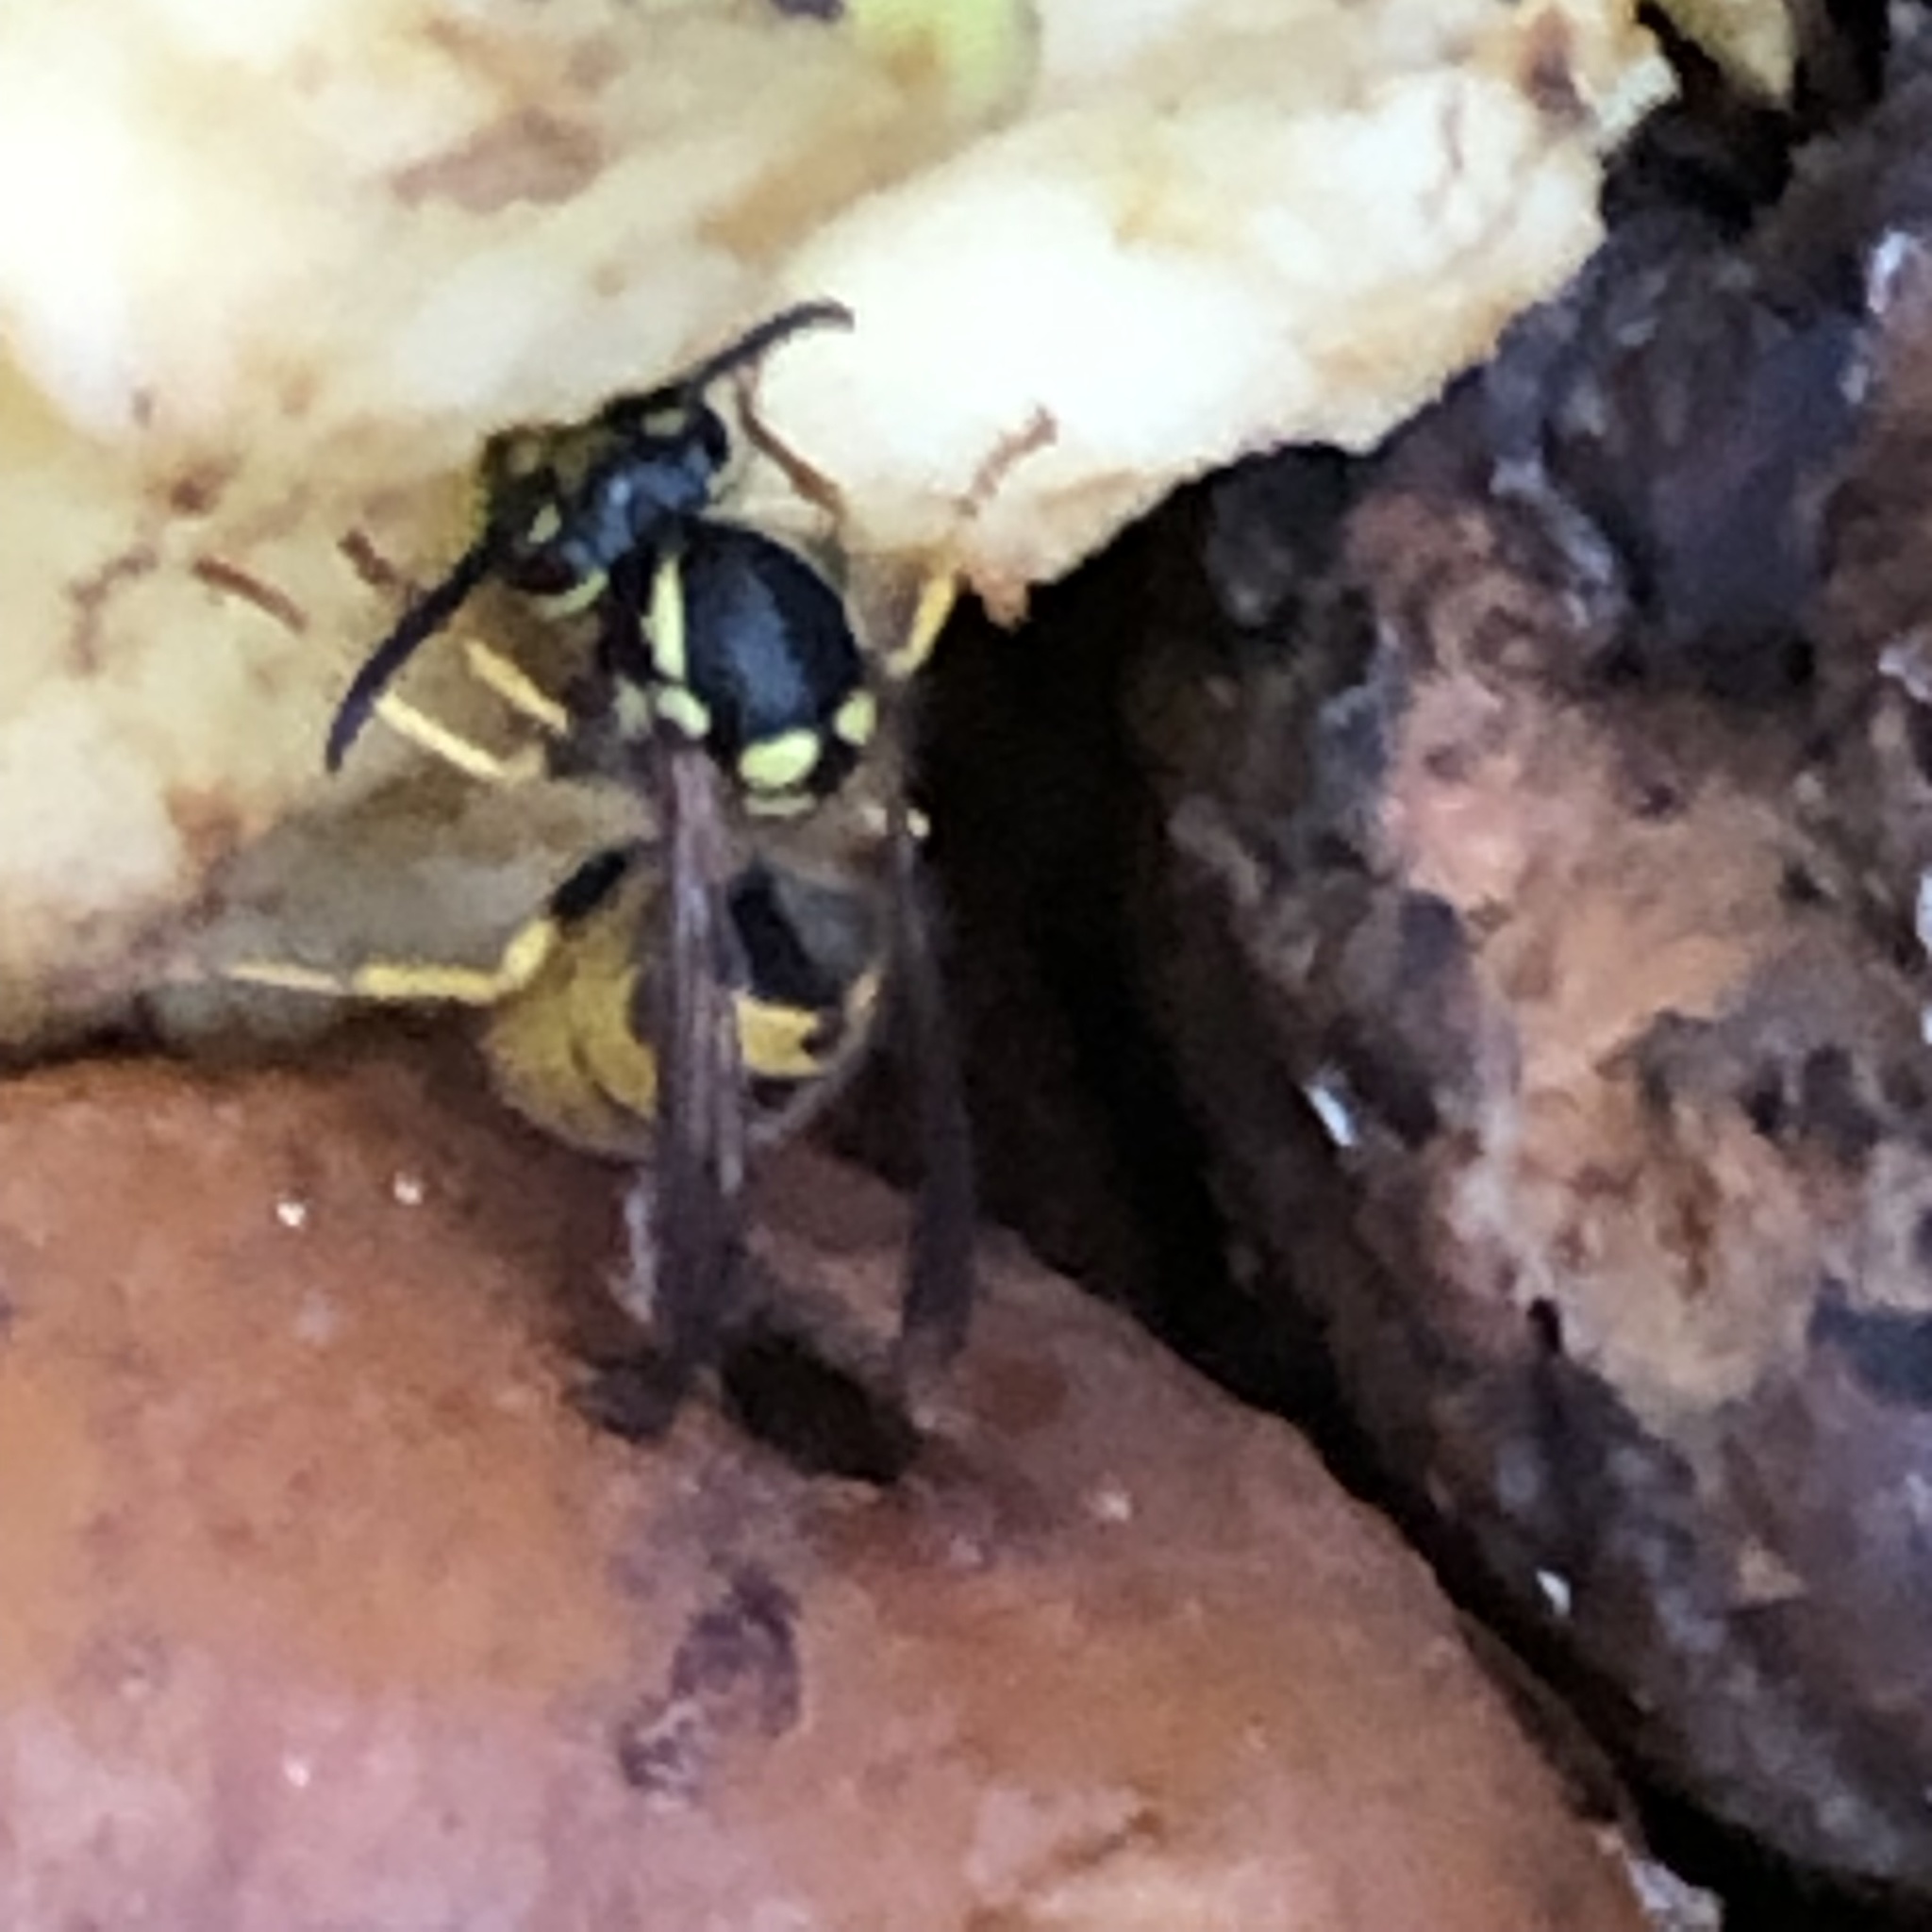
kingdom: Animalia
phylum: Arthropoda
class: Insecta
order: Hymenoptera
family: Vespidae
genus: Vespula
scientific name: Vespula germanica
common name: German wasp
